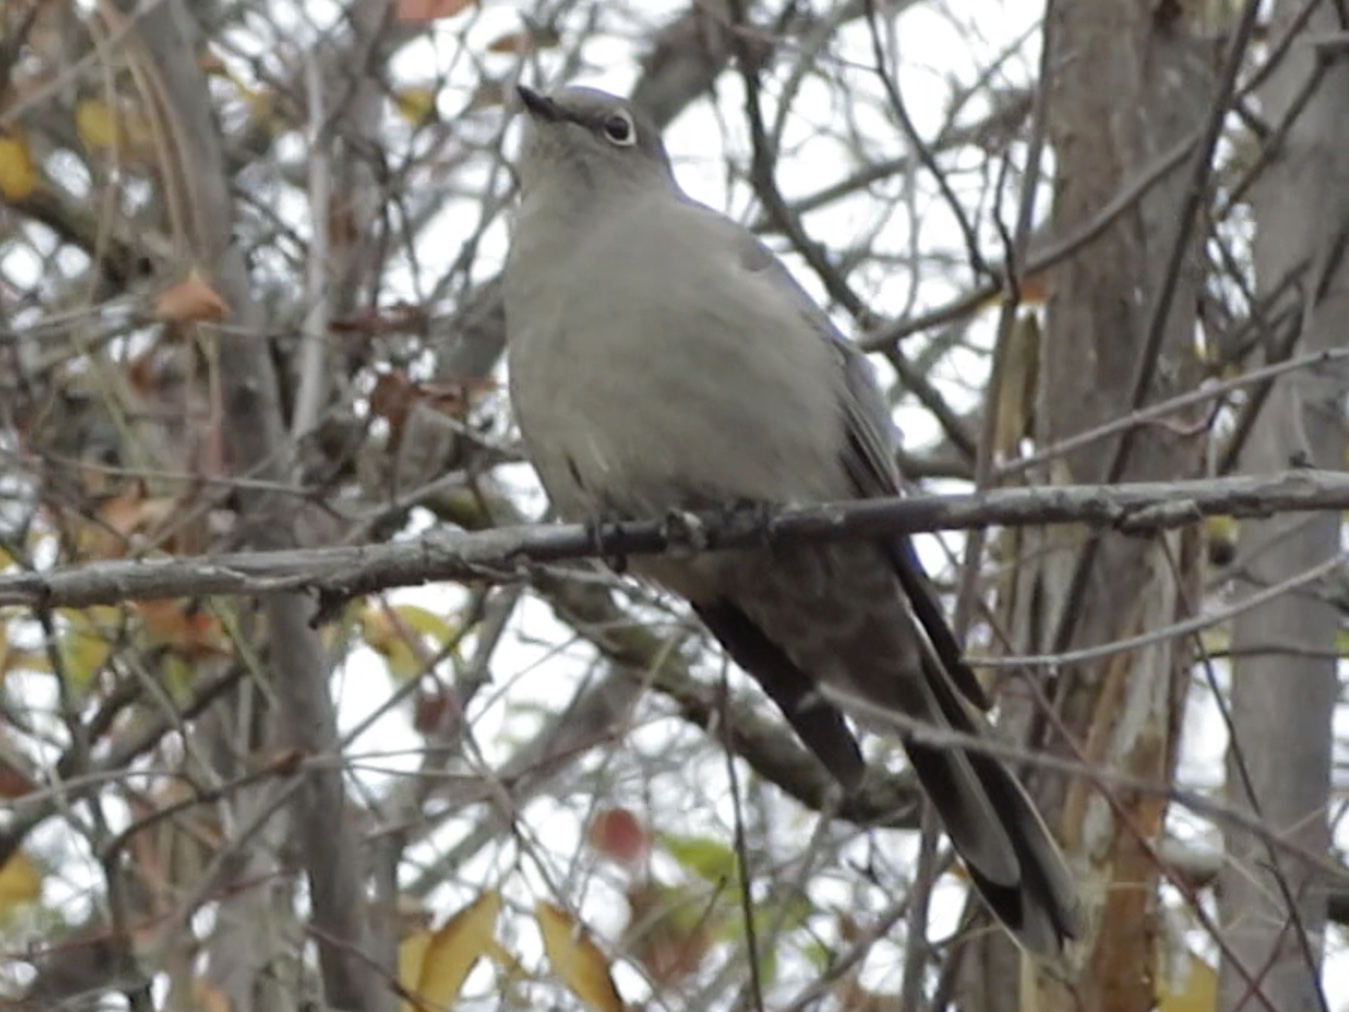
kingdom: Animalia
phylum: Chordata
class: Aves
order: Passeriformes
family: Turdidae
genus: Myadestes
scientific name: Myadestes townsendi
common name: Townsend's solitaire
